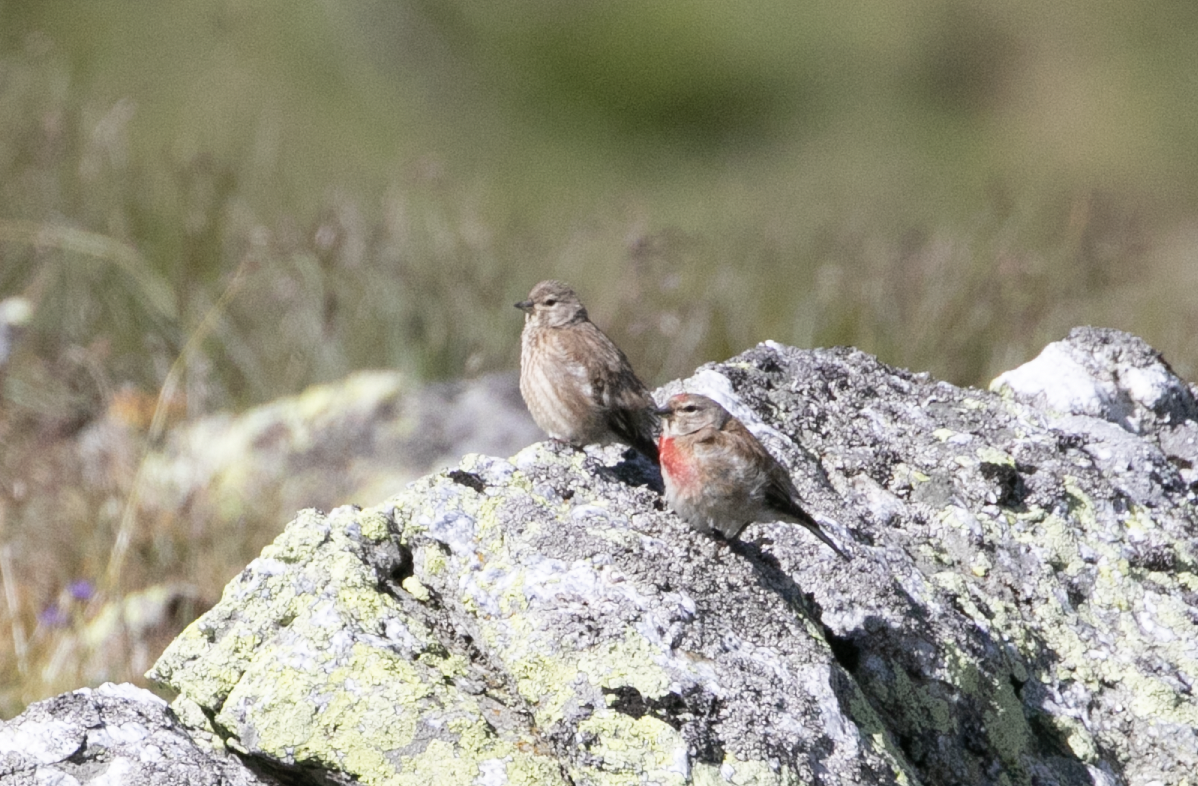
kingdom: Animalia
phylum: Chordata
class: Aves
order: Passeriformes
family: Fringillidae
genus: Linaria
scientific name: Linaria cannabina
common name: Common linnet
